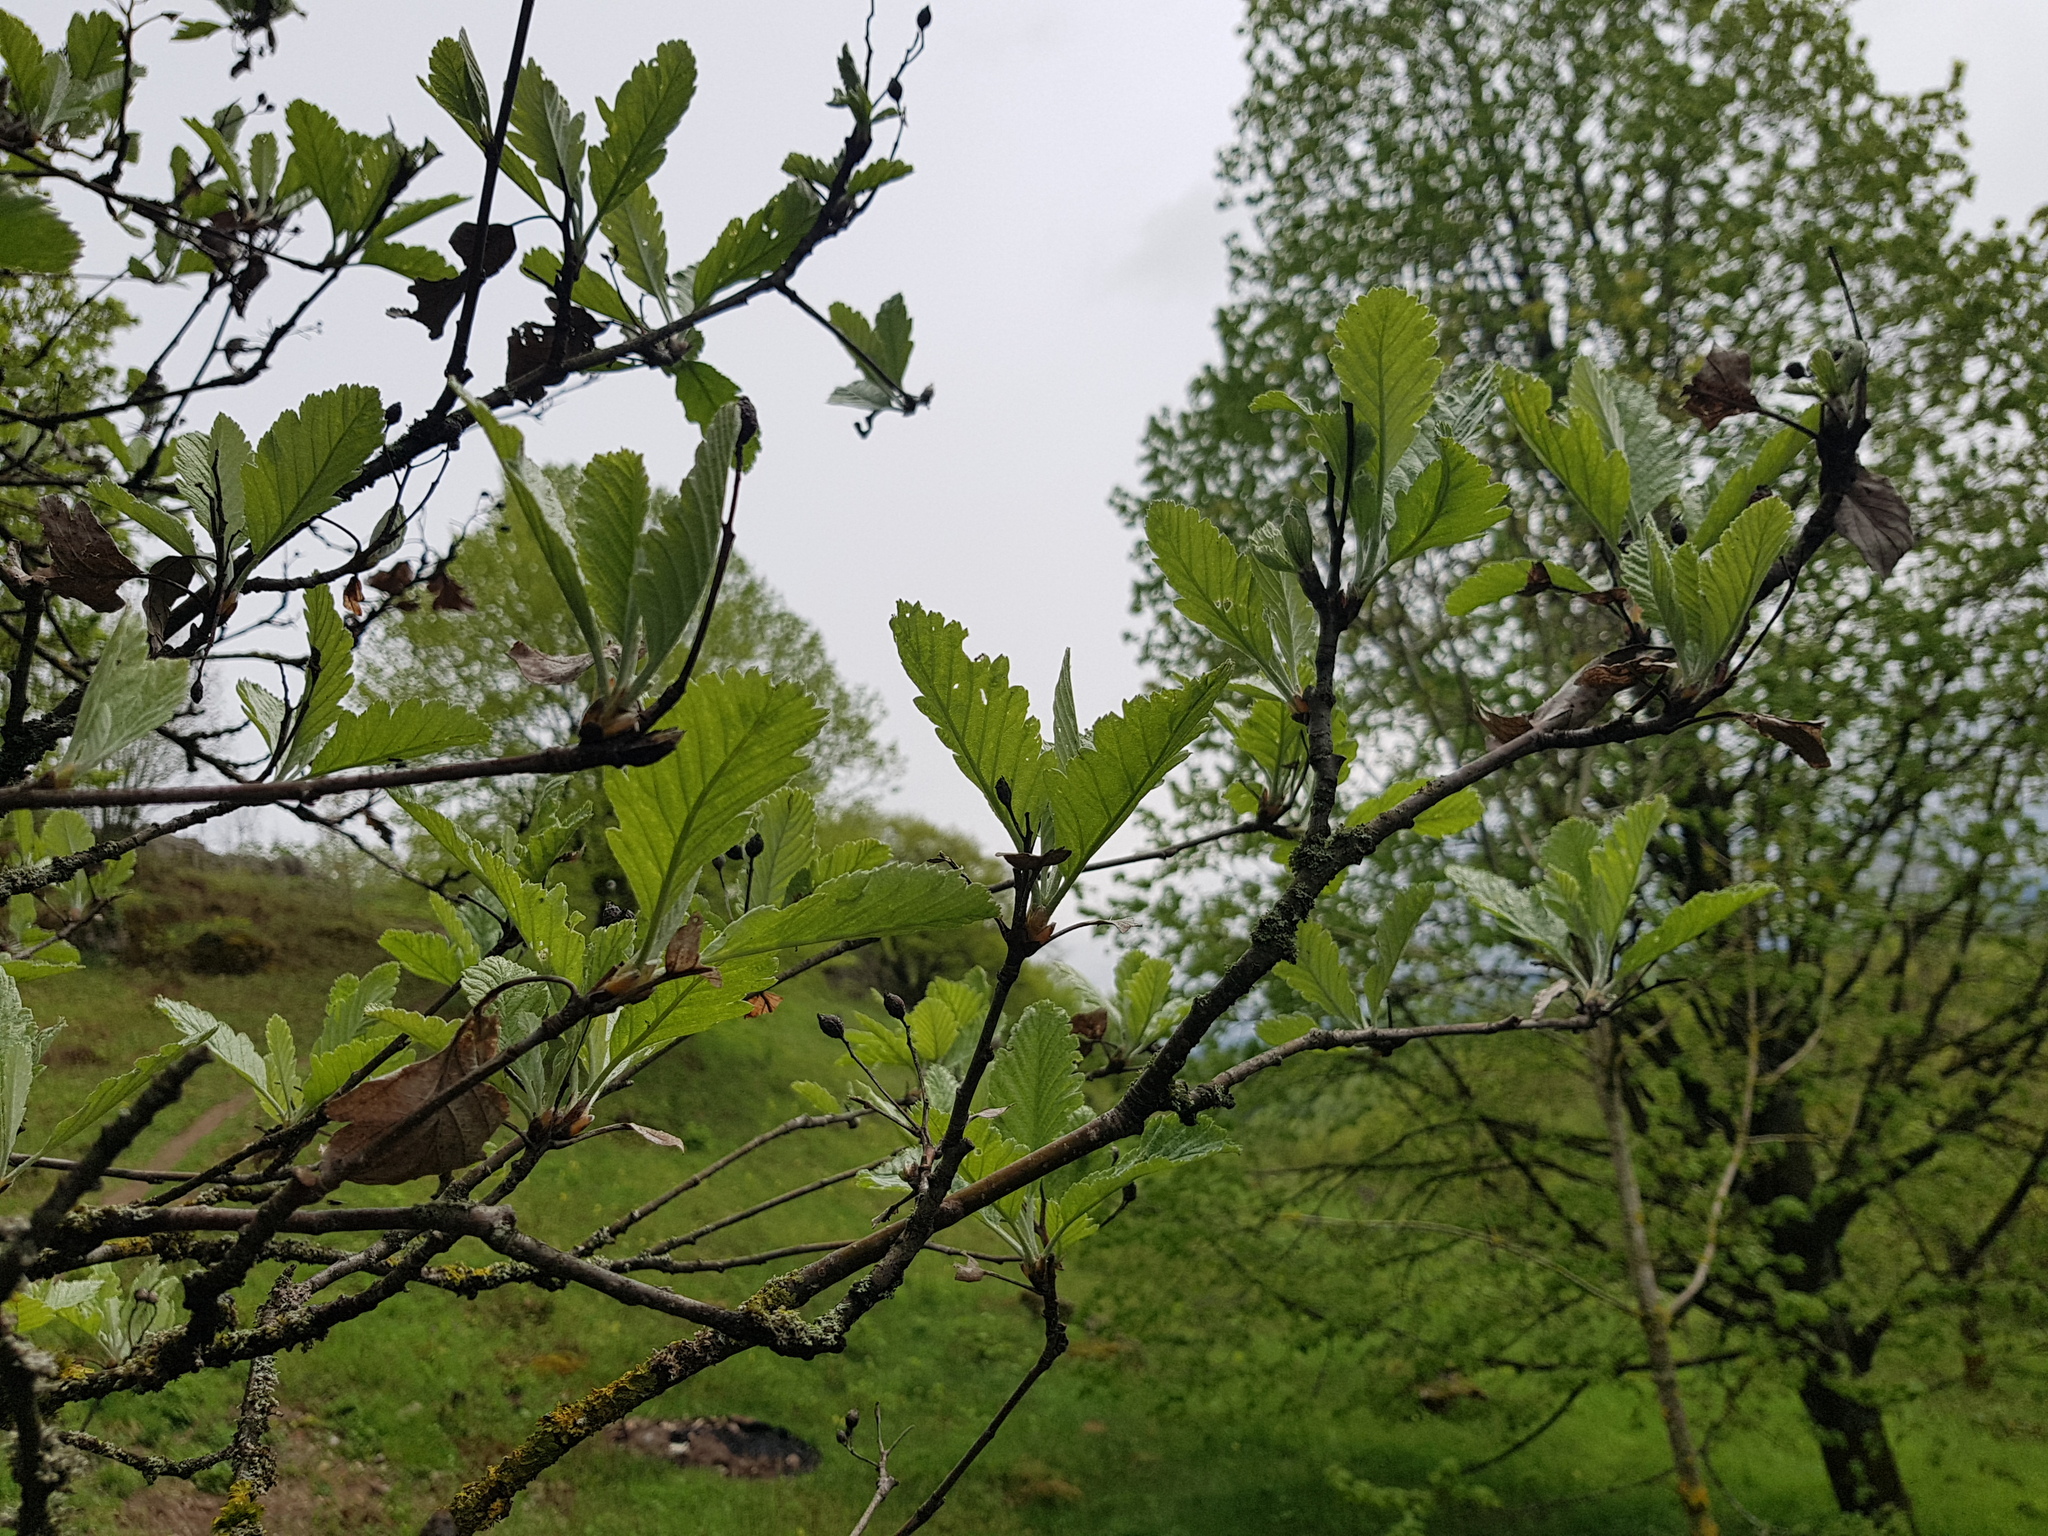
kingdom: Plantae
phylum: Tracheophyta
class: Magnoliopsida
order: Rosales
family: Rosaceae
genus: Hedlundia
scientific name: Hedlundia pseudothuringiaca
